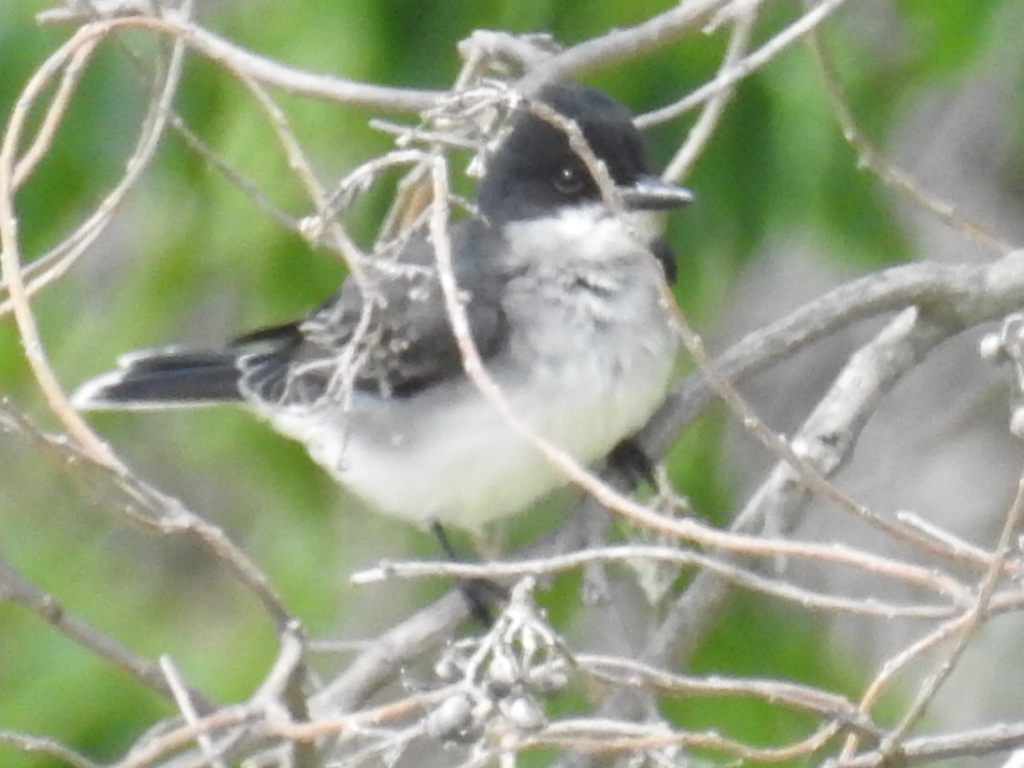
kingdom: Animalia
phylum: Chordata
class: Aves
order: Passeriformes
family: Tyrannidae
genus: Tyrannus
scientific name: Tyrannus tyrannus
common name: Eastern kingbird
